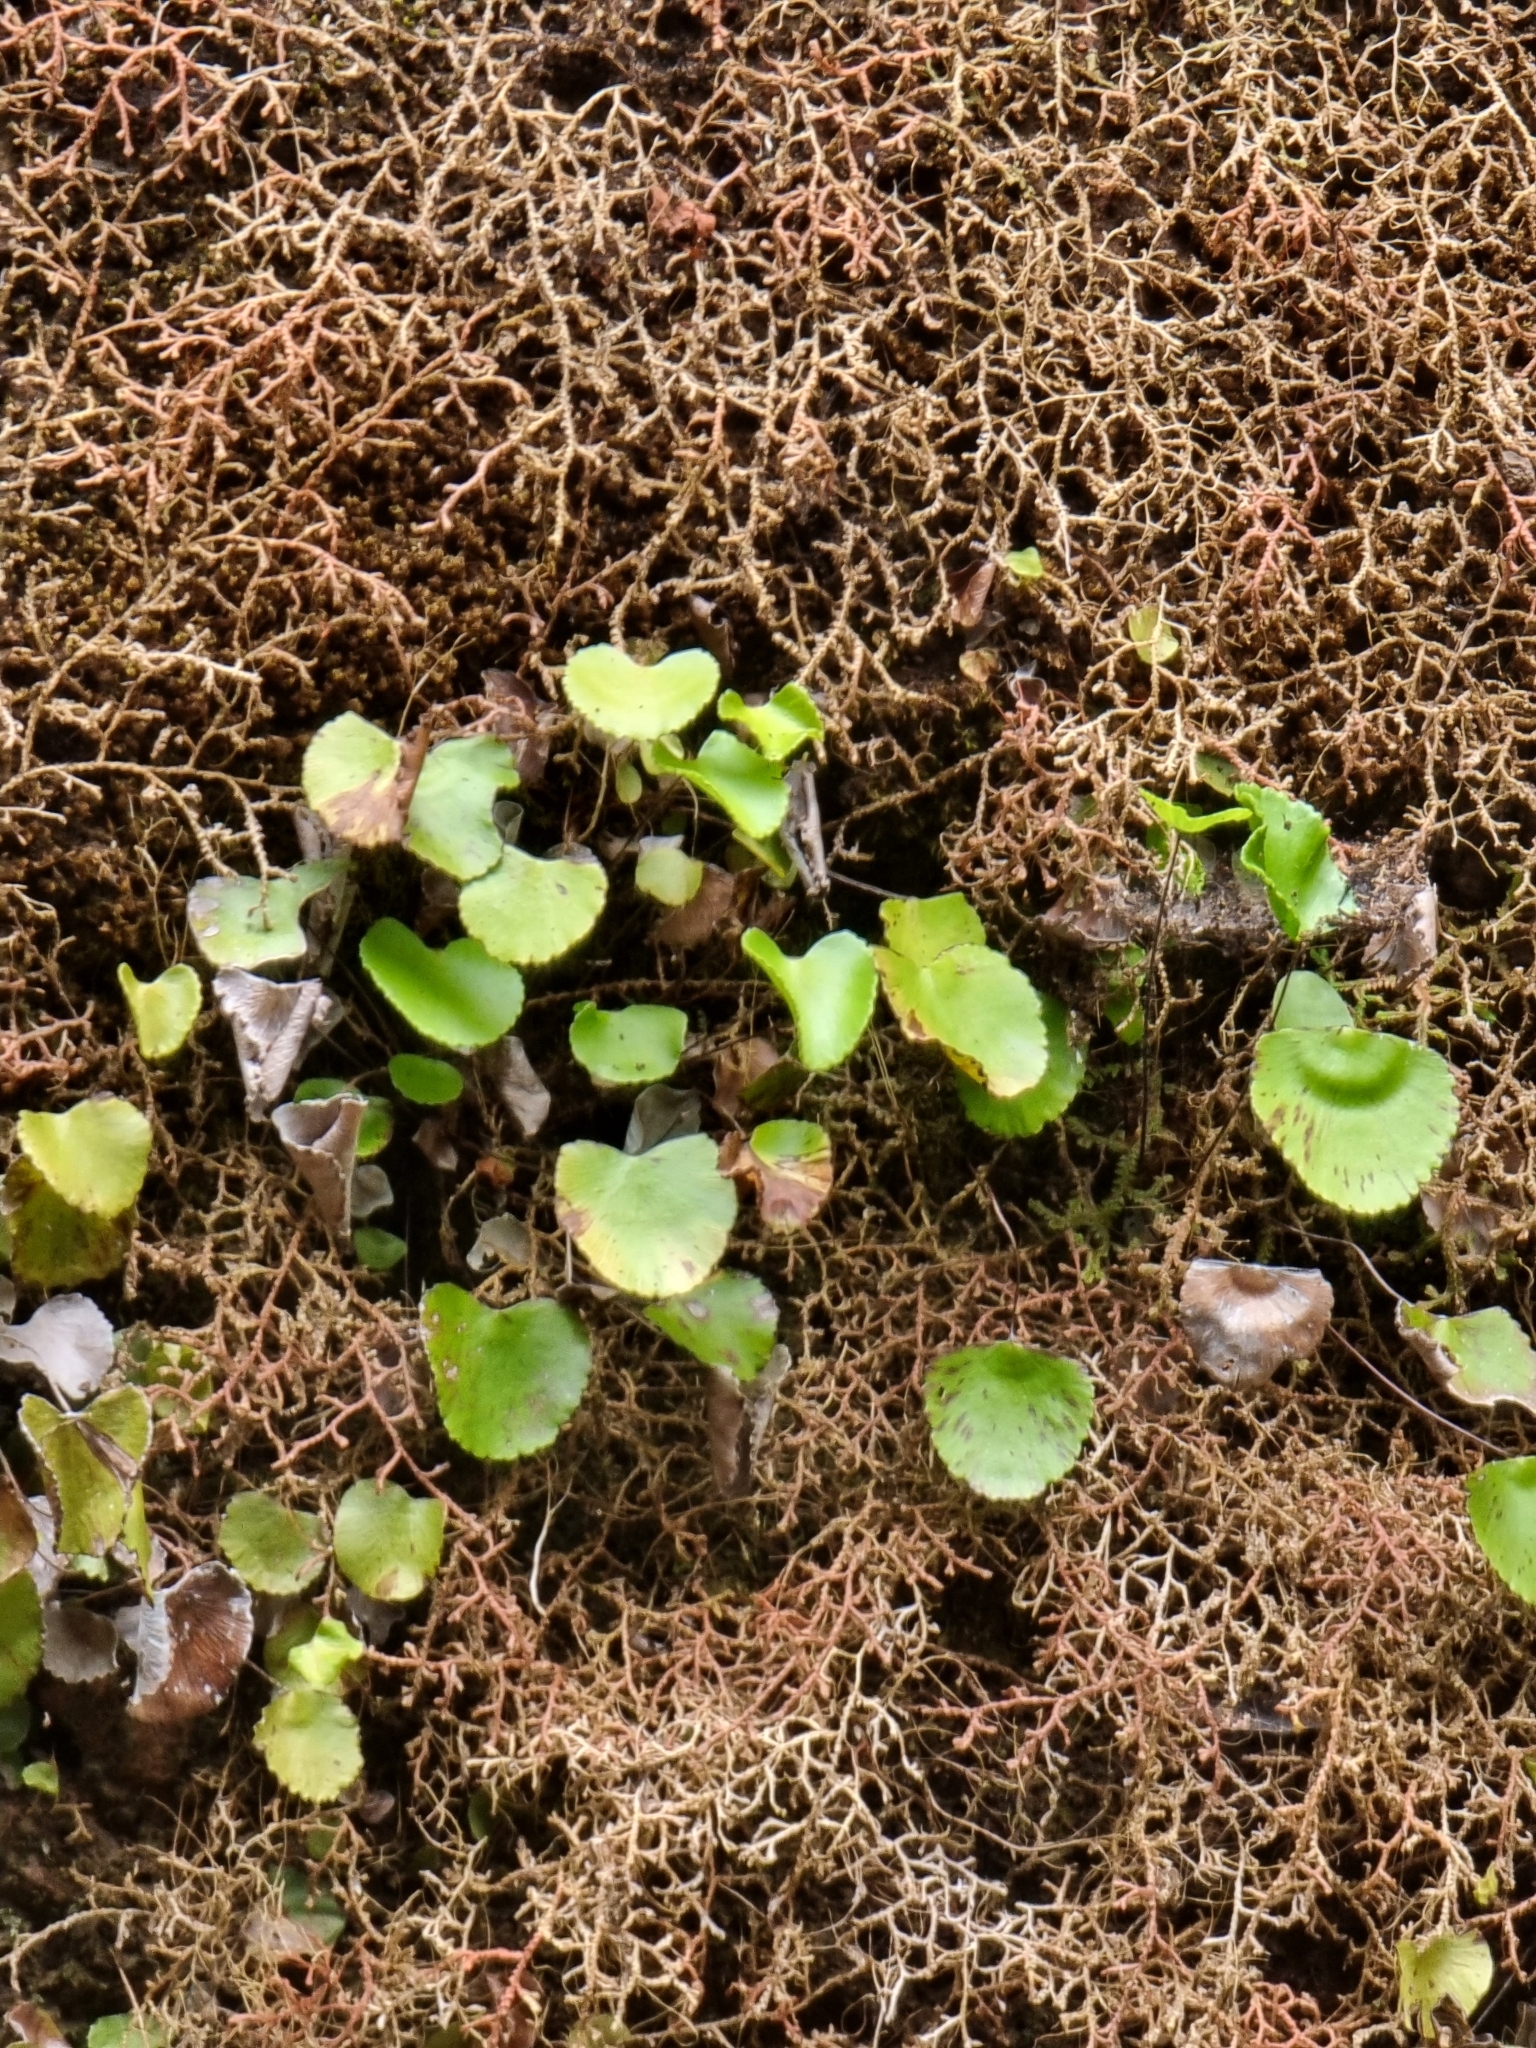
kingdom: Plantae
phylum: Tracheophyta
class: Polypodiopsida
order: Polypodiales
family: Pteridaceae
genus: Adiantum
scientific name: Adiantum reniforme
